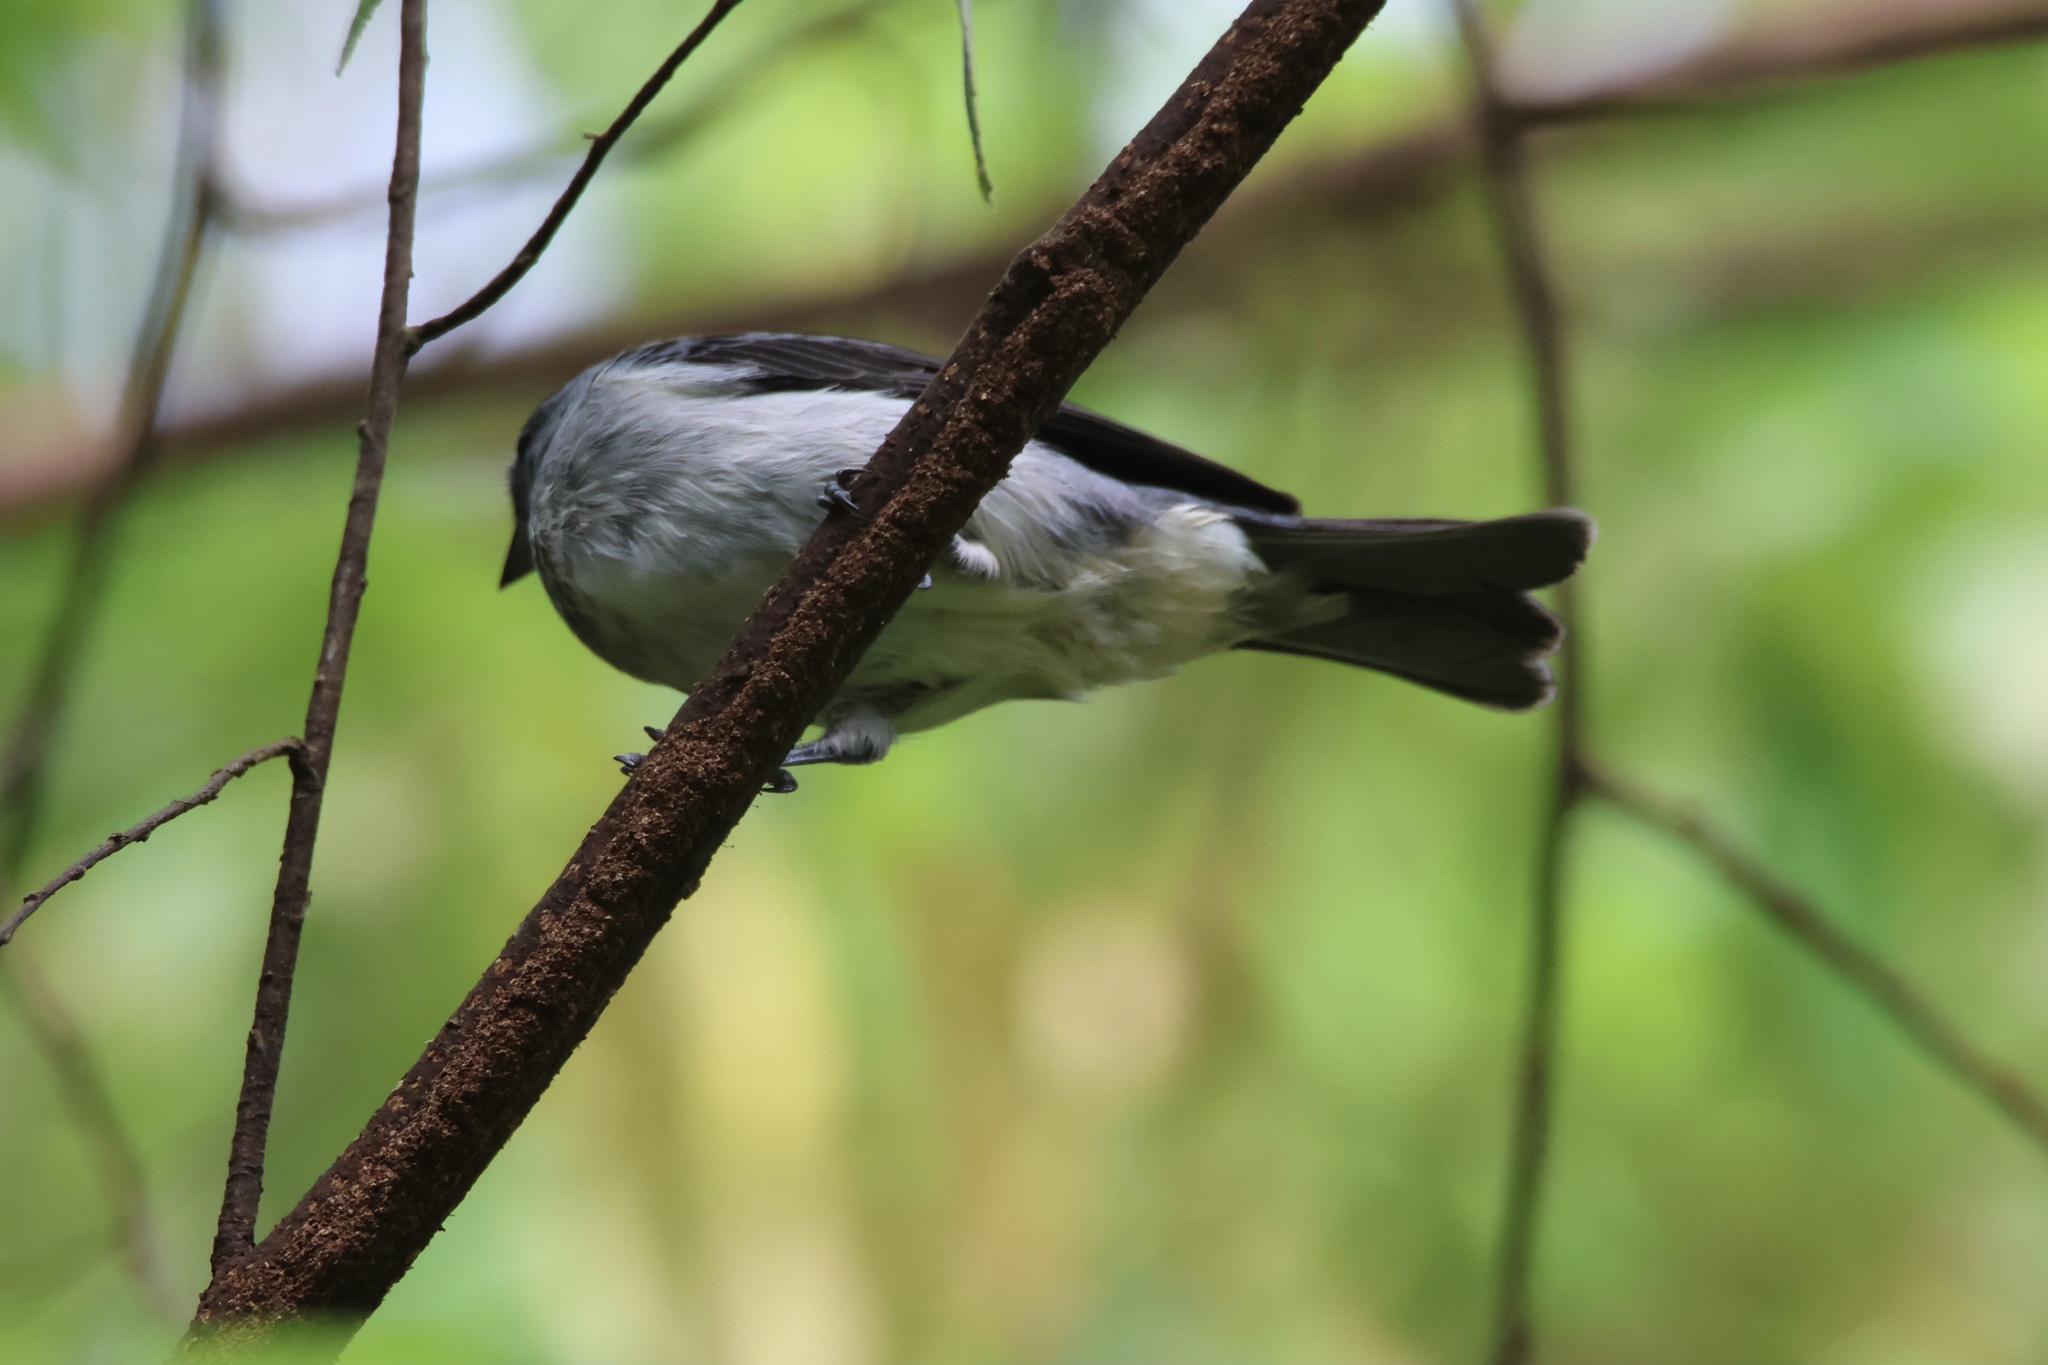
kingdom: Animalia
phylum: Chordata
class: Aves
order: Passeriformes
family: Thraupidae
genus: Tangara
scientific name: Tangara inornata
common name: Plain-colored tanager
